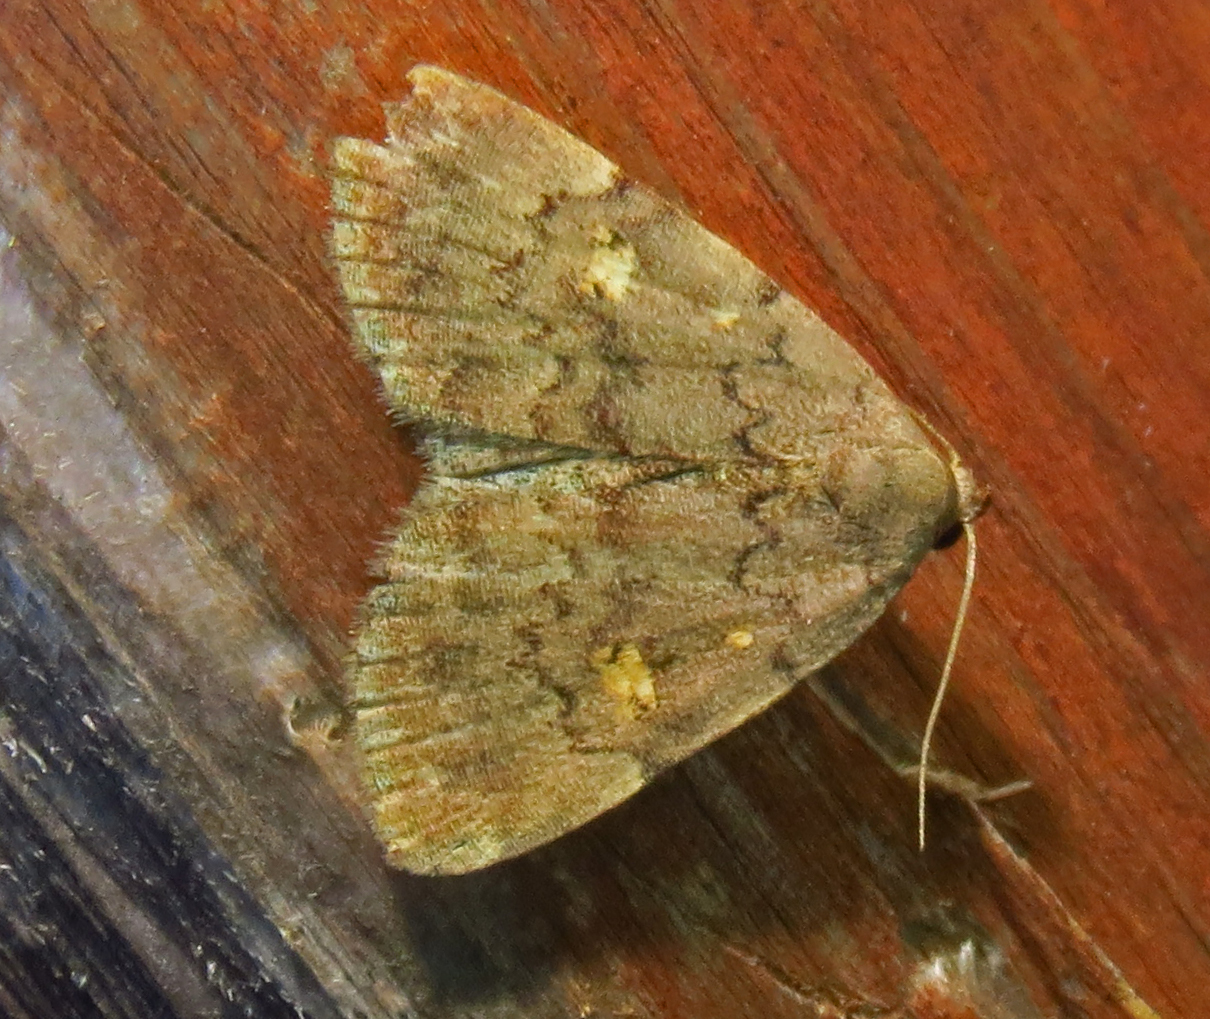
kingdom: Animalia
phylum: Arthropoda
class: Insecta
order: Lepidoptera
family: Erebidae
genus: Idia
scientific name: Idia aemula
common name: Common idia moth
